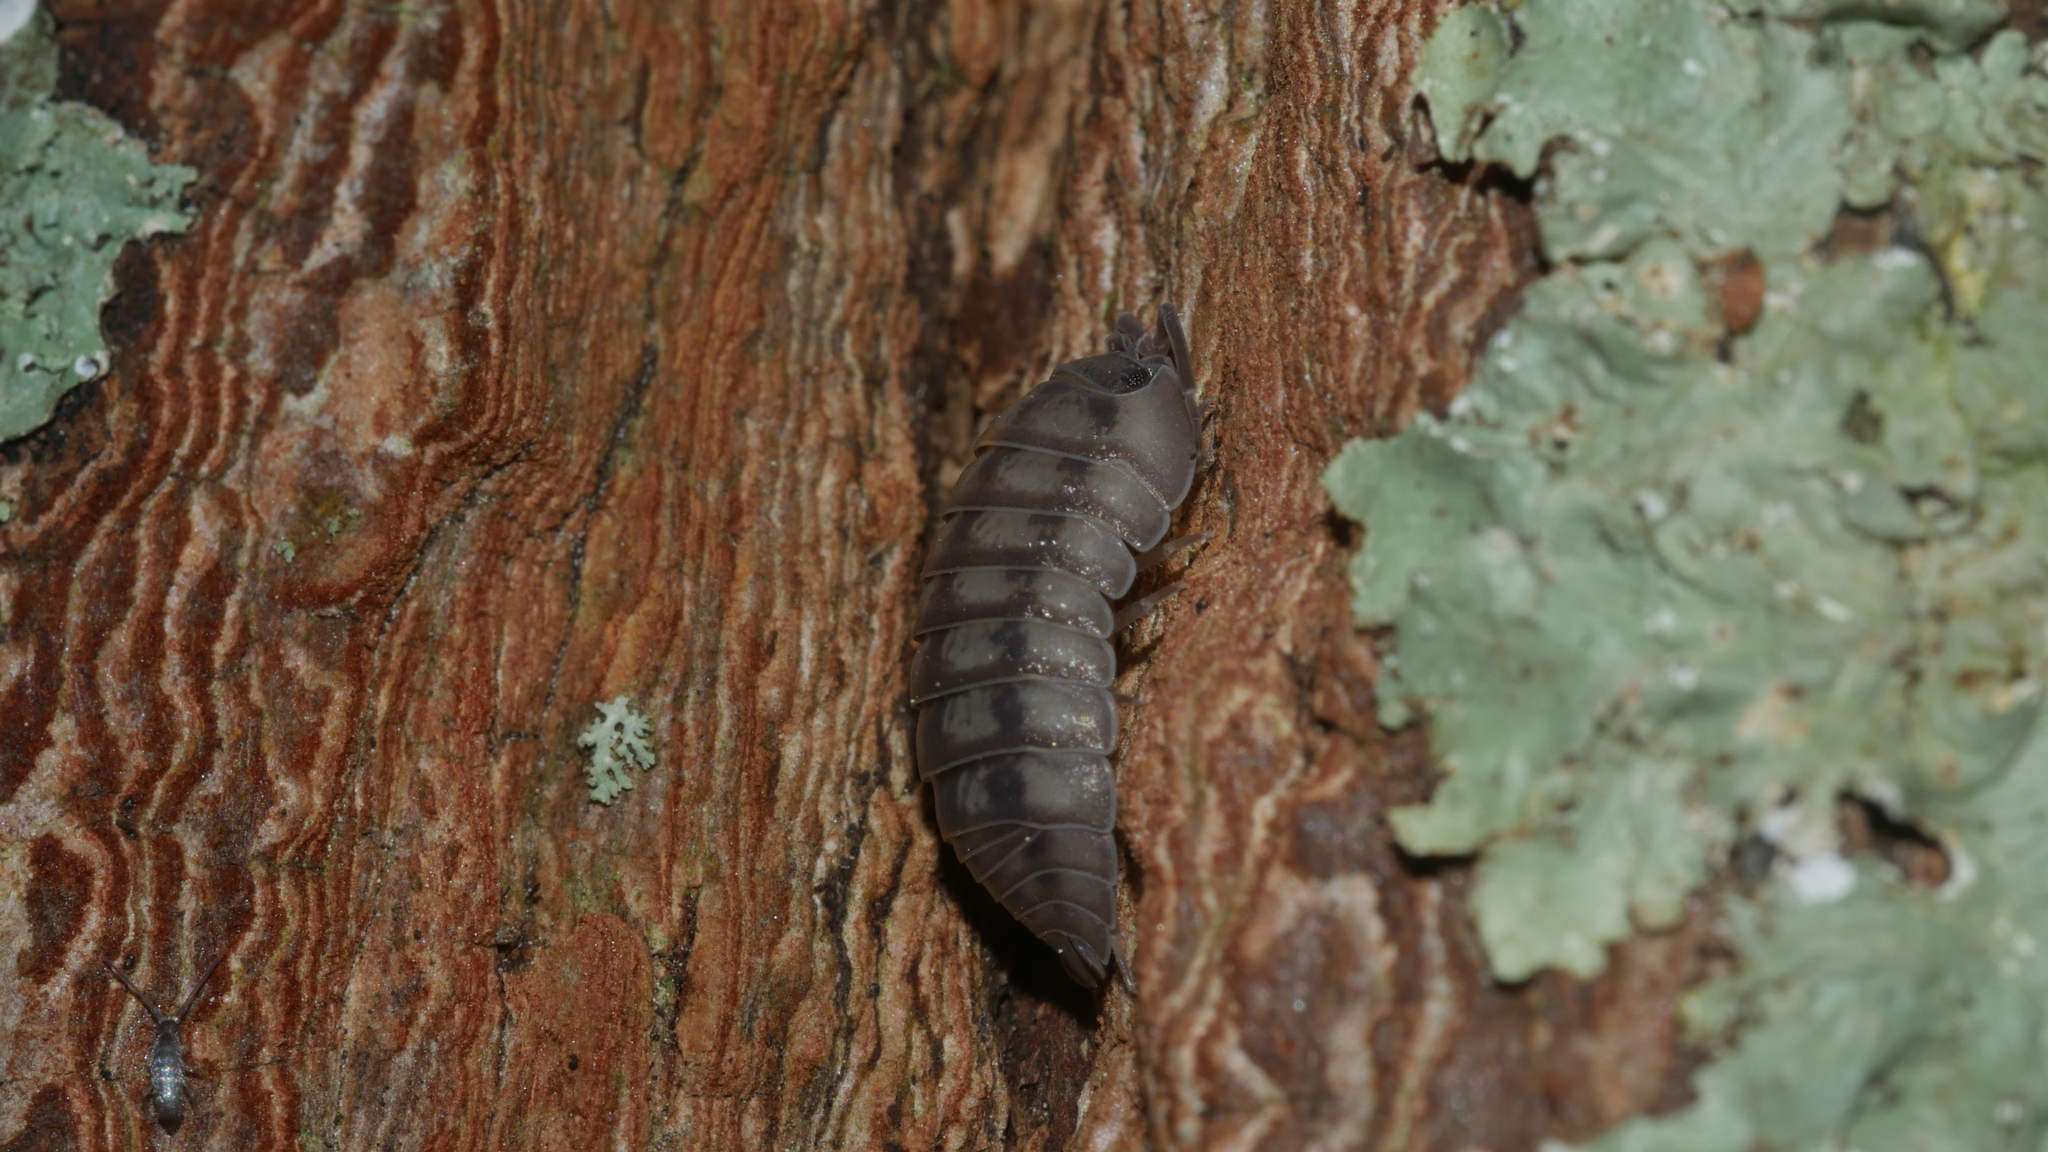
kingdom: Animalia
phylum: Arthropoda
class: Malacostraca
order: Isopoda
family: Armadillidiidae
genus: Armadillidium
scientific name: Armadillidium nasatum
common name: Isopod
